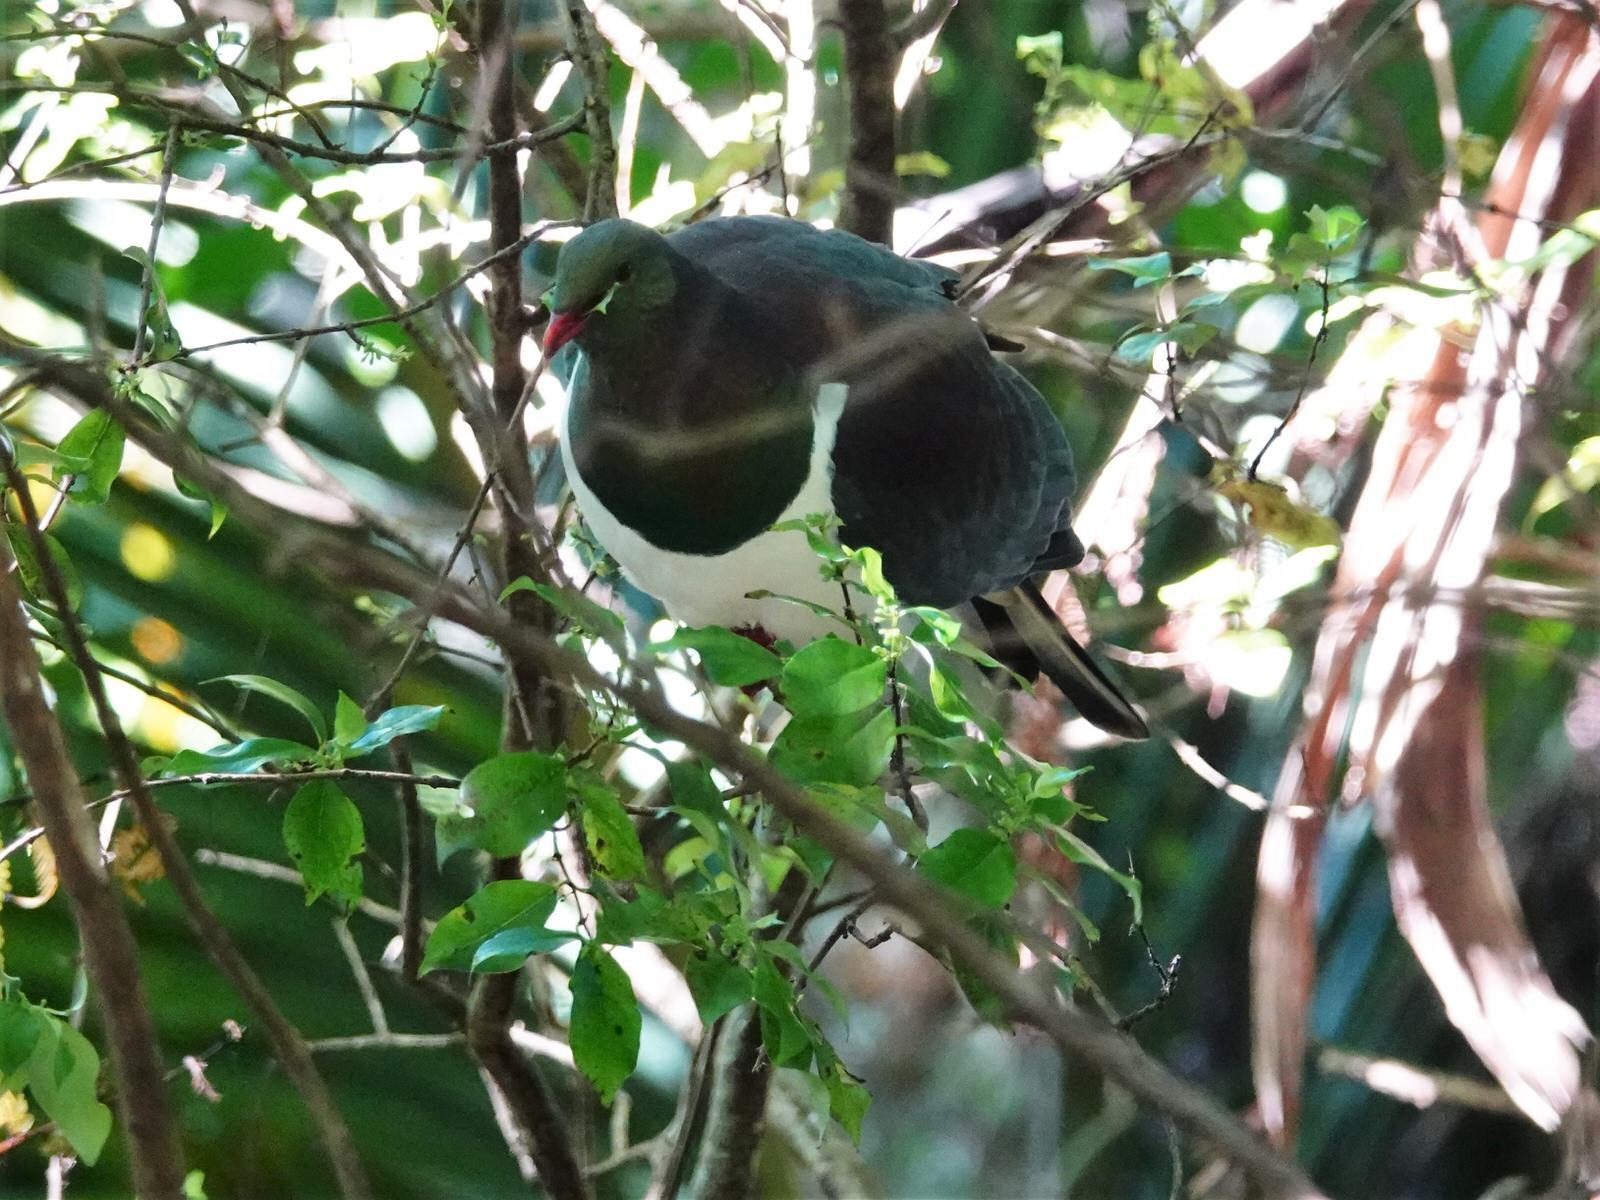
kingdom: Animalia
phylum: Chordata
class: Aves
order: Columbiformes
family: Columbidae
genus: Hemiphaga
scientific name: Hemiphaga novaeseelandiae
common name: New zealand pigeon
